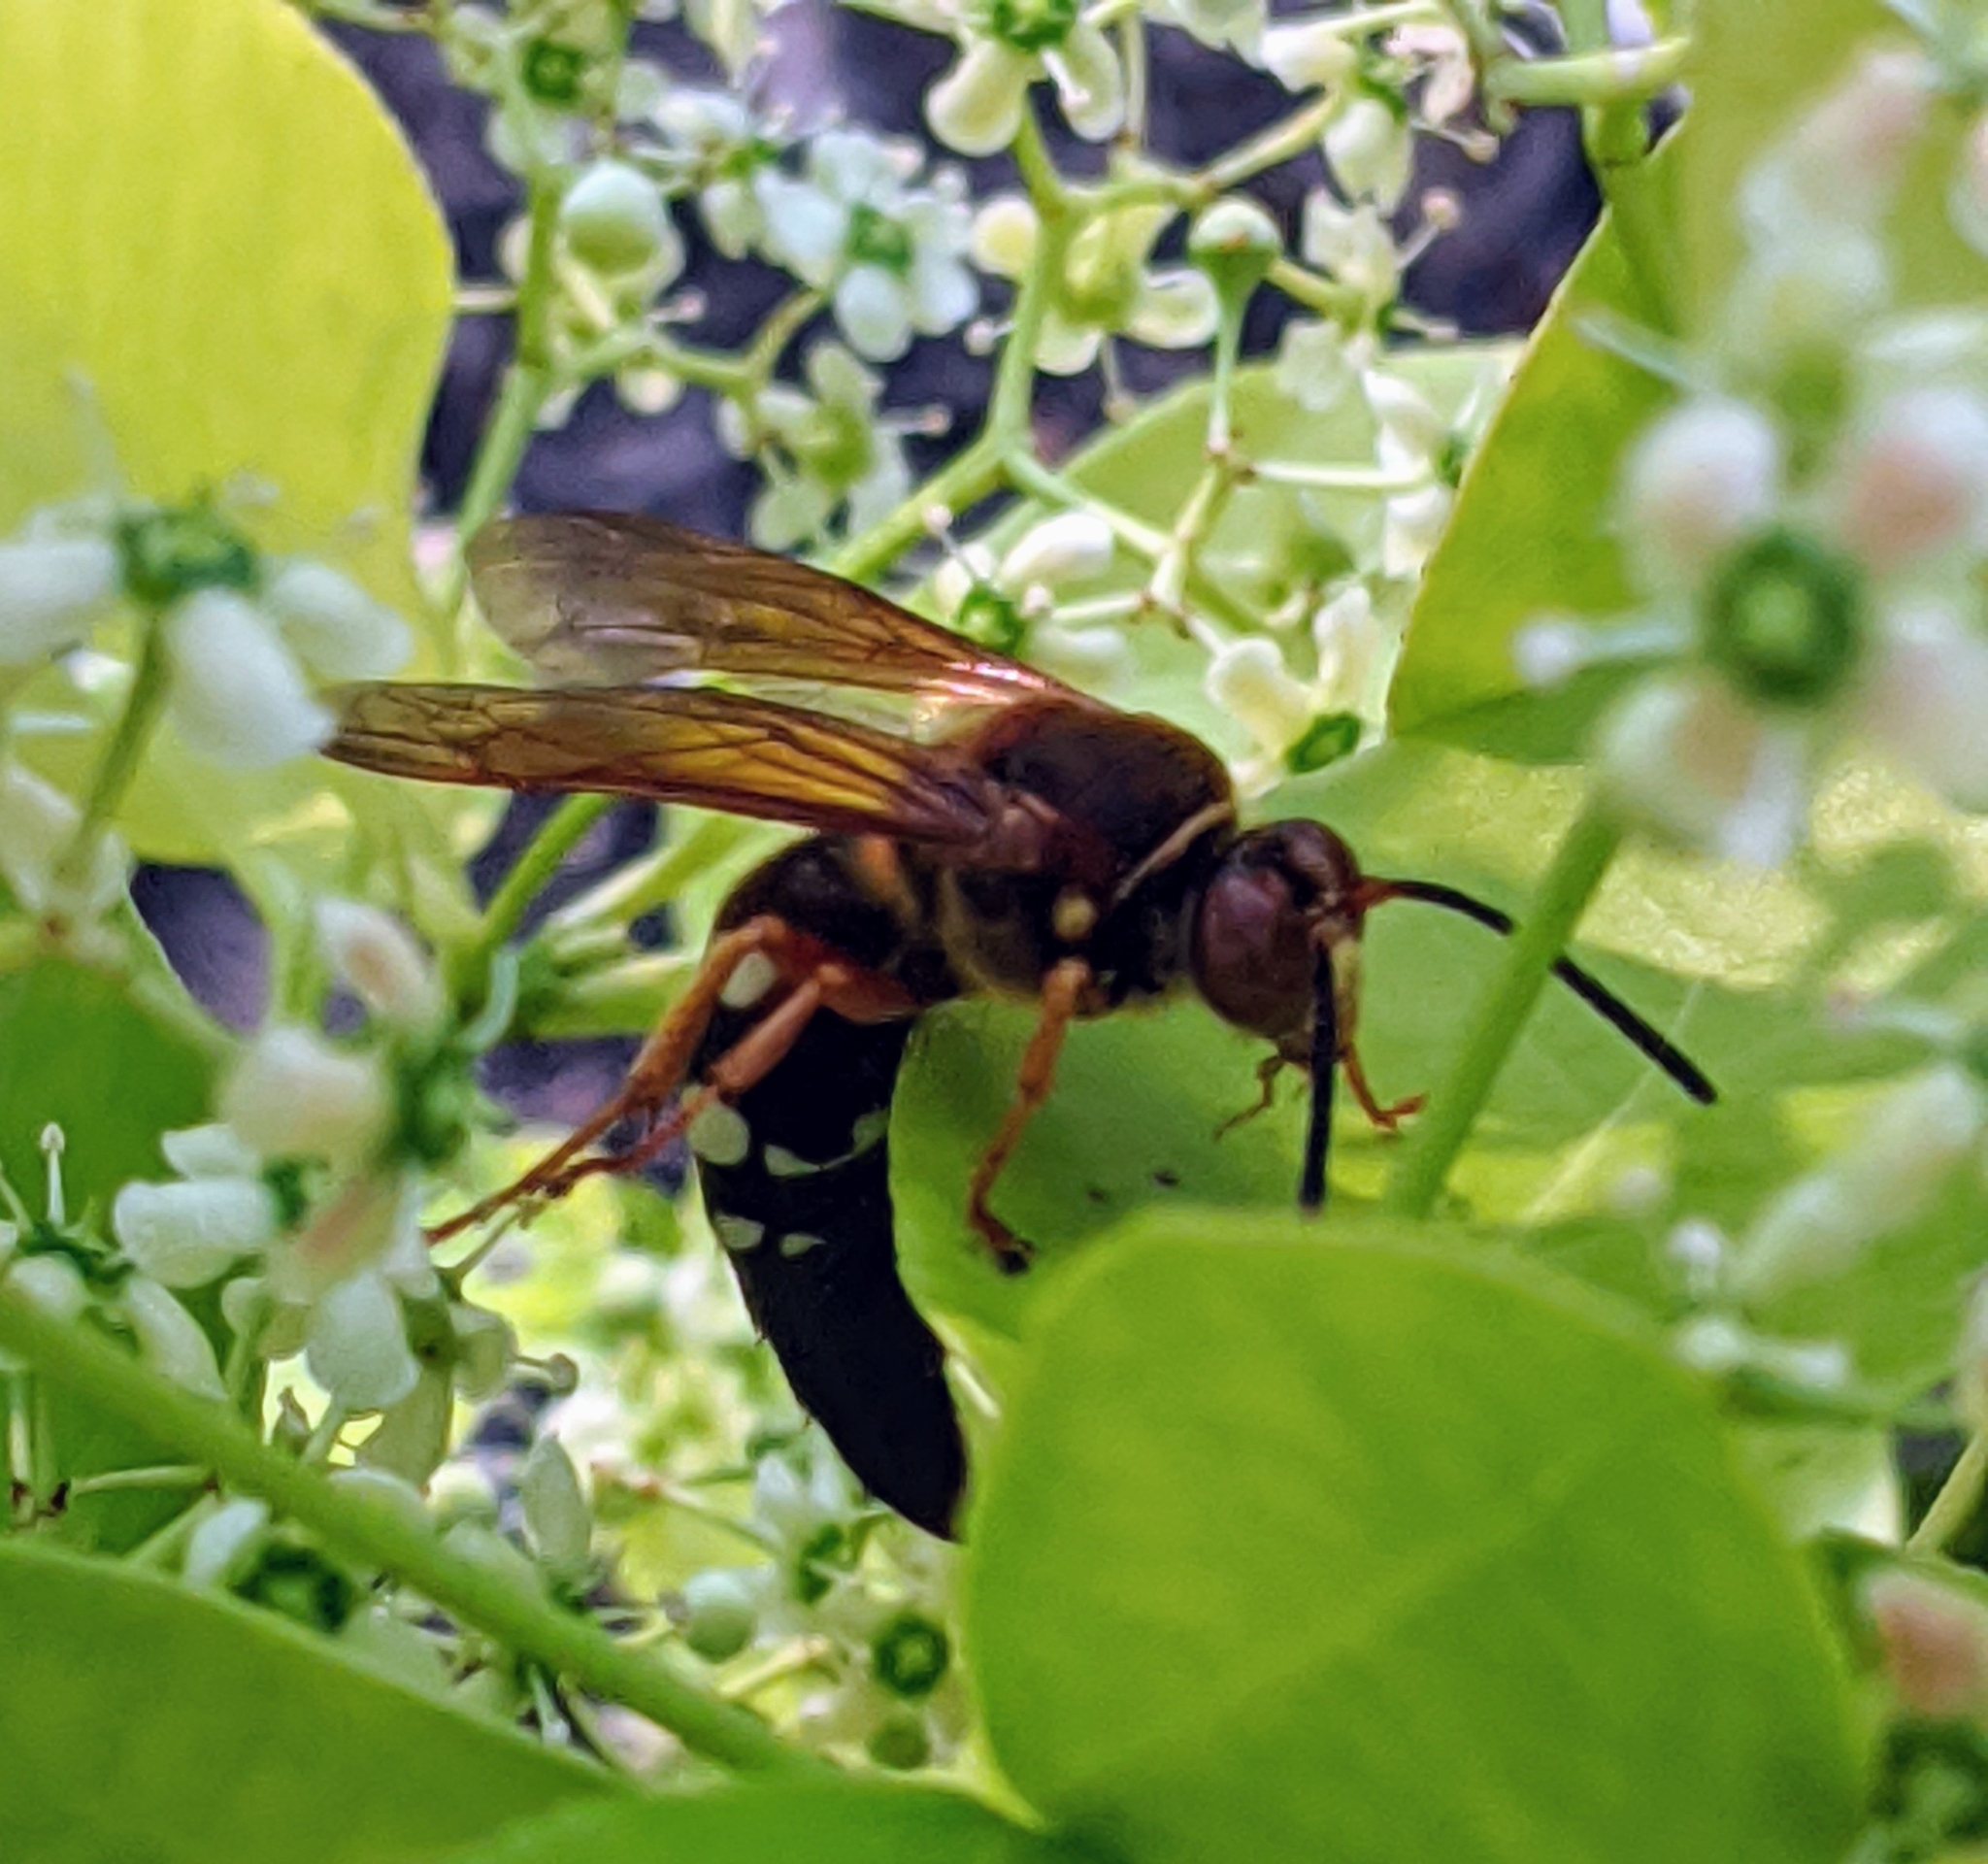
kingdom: Animalia
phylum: Arthropoda
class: Insecta
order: Hymenoptera
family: Crabronidae
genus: Sphecius
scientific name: Sphecius speciosus
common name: Cicada killer
